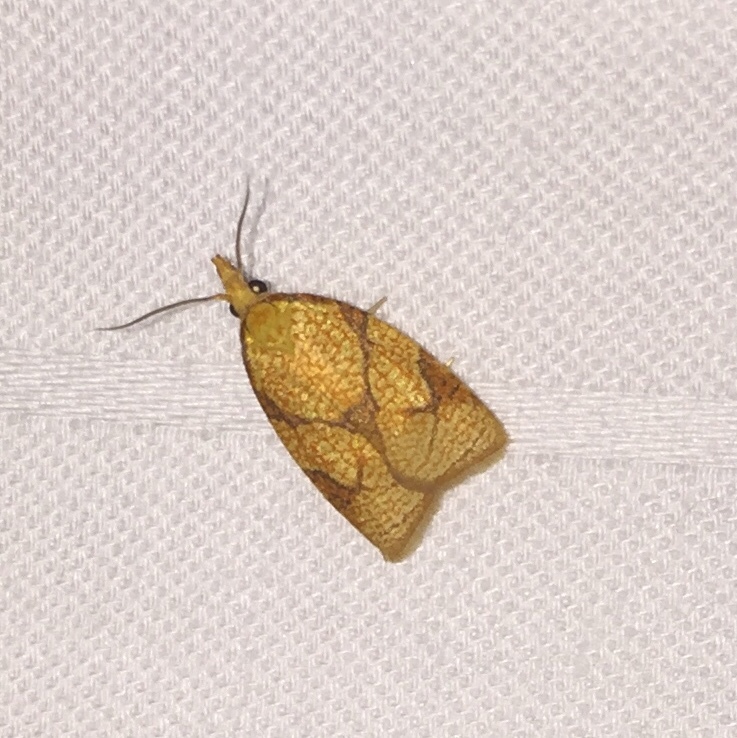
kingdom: Animalia
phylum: Arthropoda
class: Insecta
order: Lepidoptera
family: Tortricidae
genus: Cenopis
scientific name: Cenopis reticulatana
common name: Reticulated fruitworm moth
